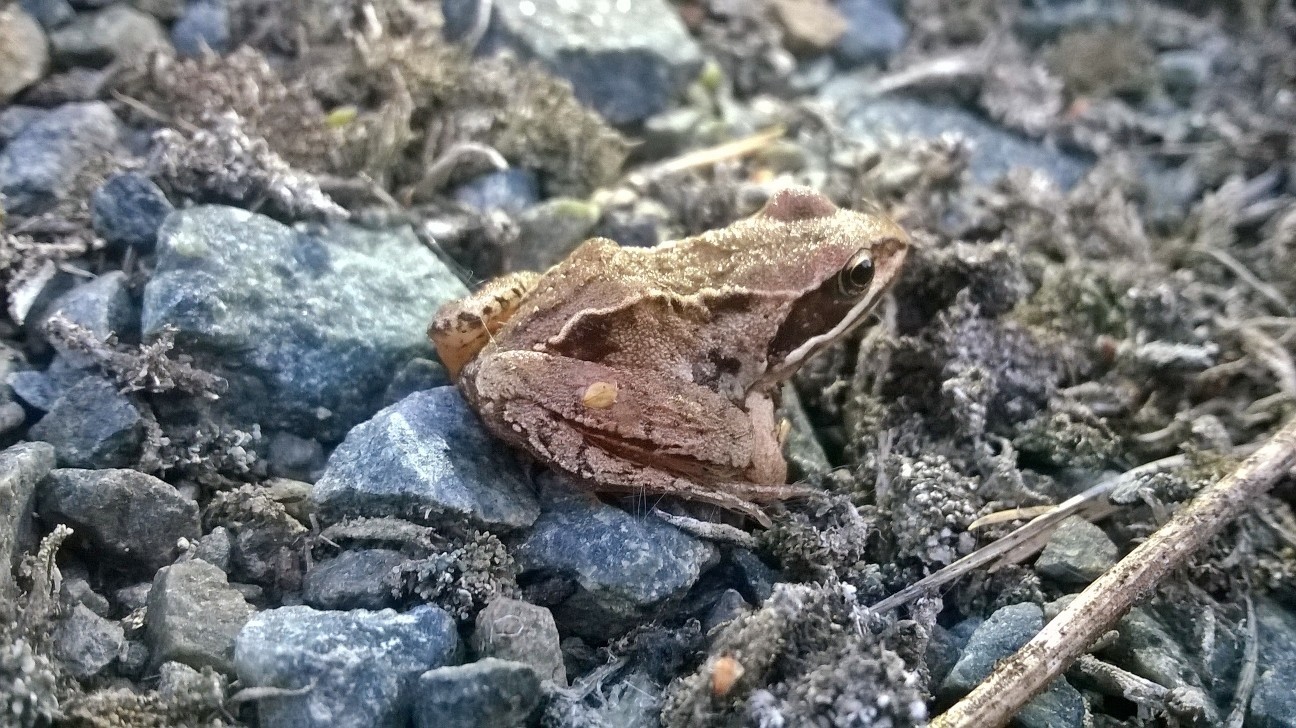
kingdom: Animalia
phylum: Chordata
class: Amphibia
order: Anura
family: Ranidae
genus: Rana
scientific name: Rana arvalis
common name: Moor frog
